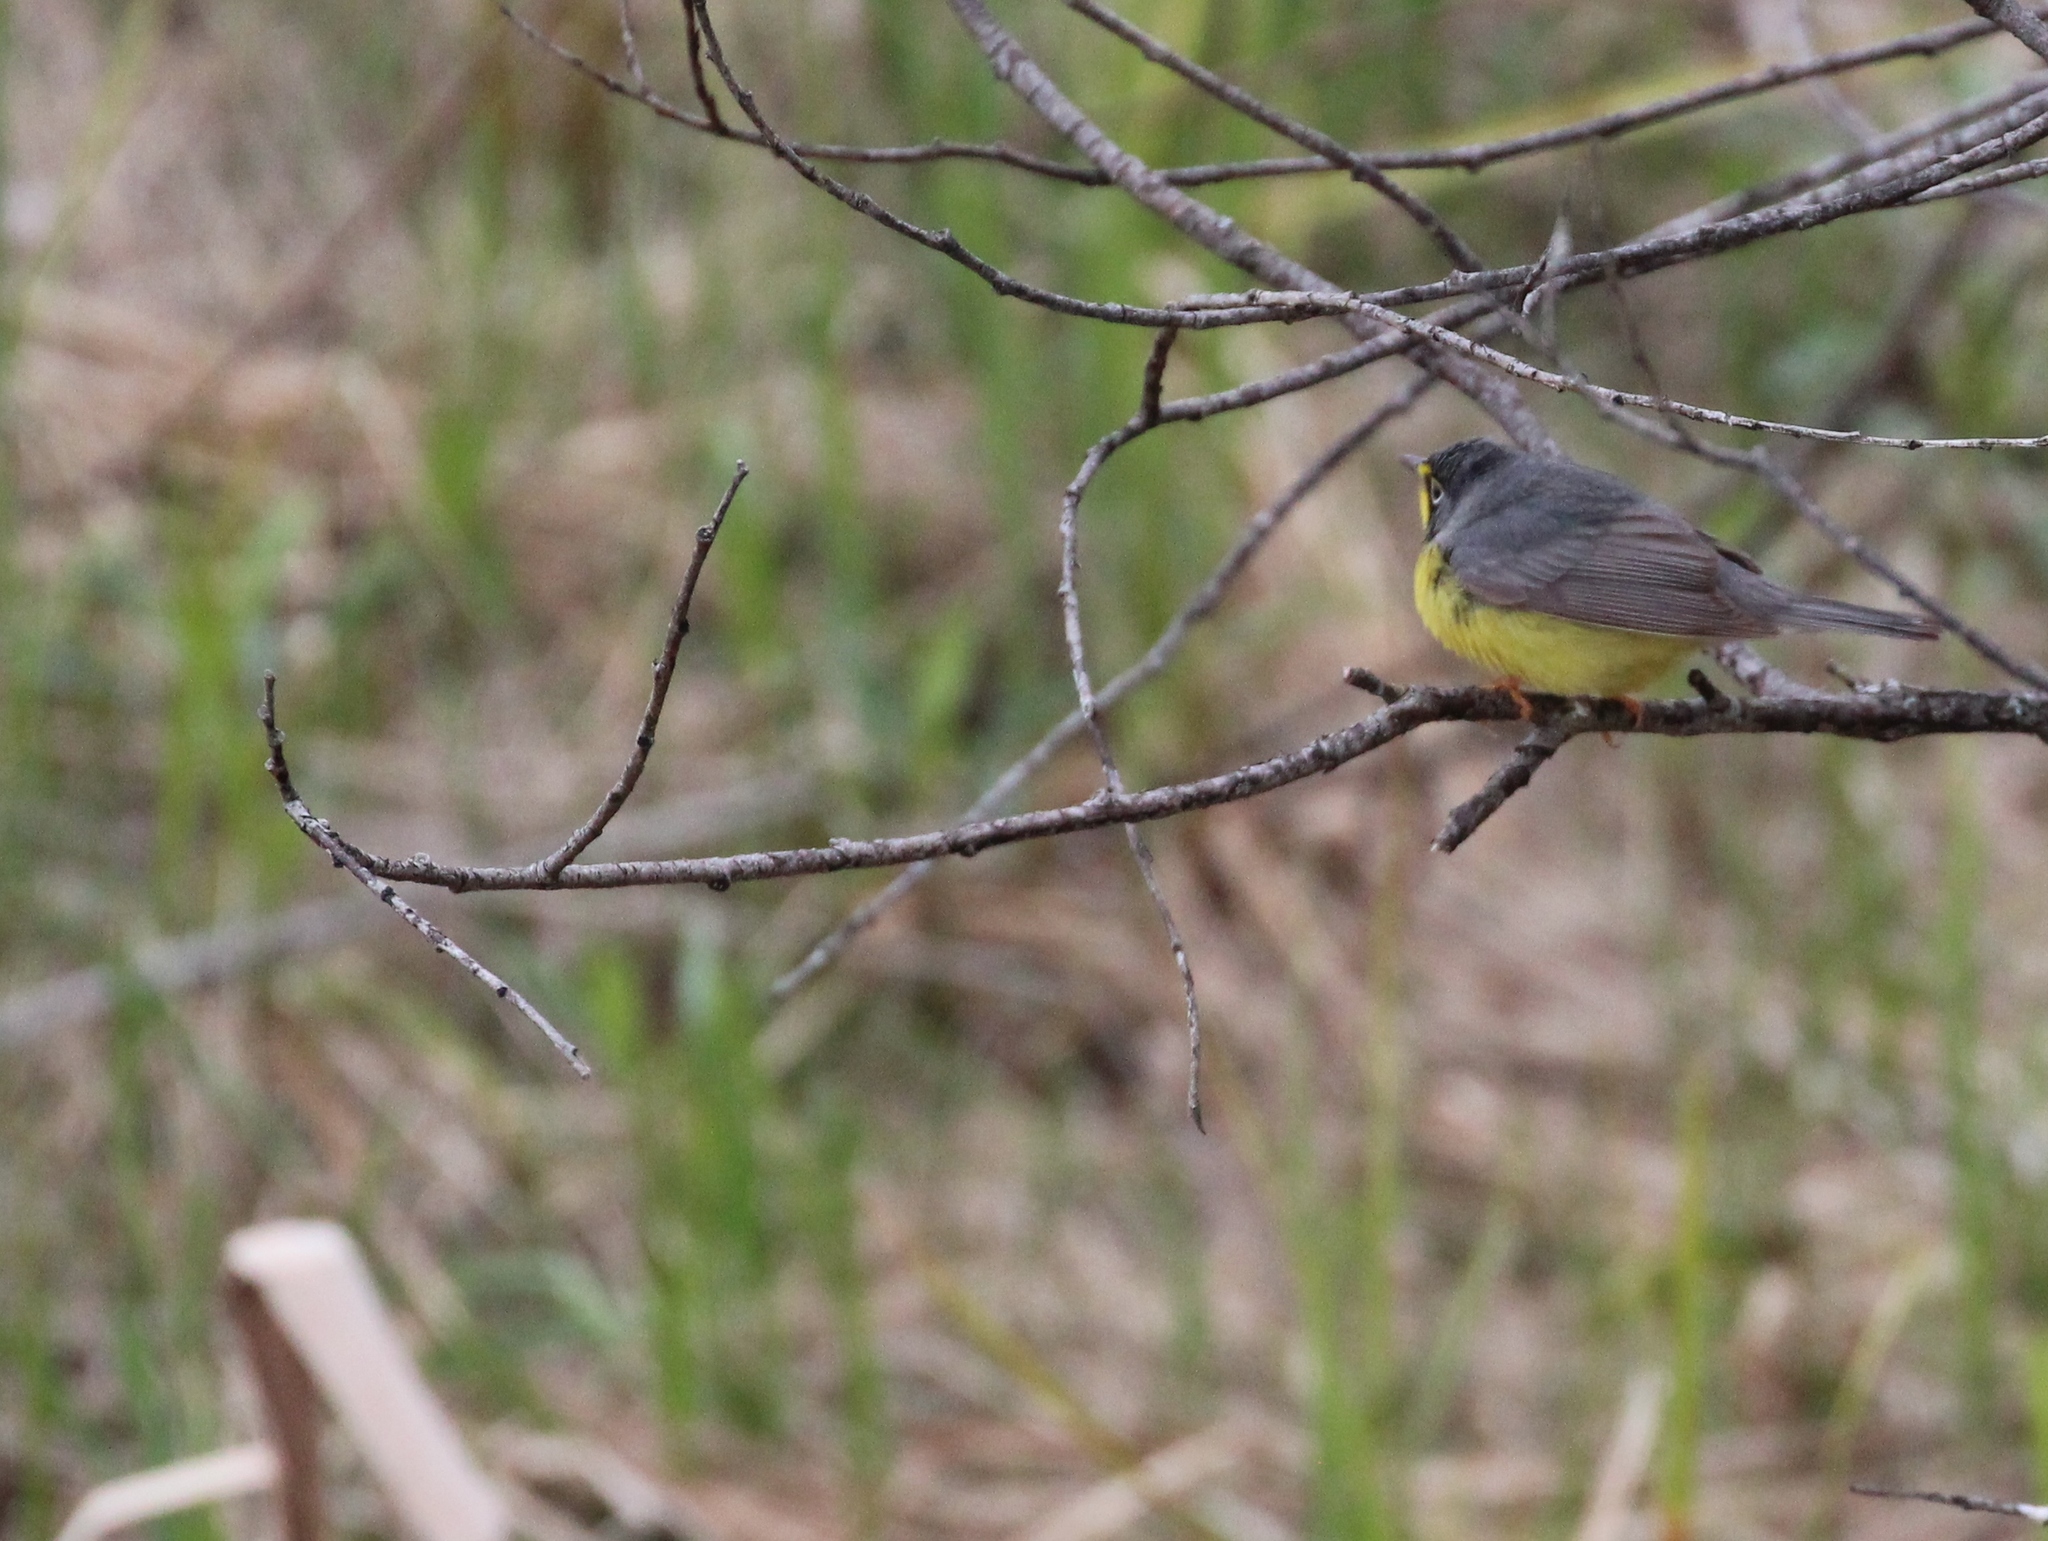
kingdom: Animalia
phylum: Chordata
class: Aves
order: Passeriformes
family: Parulidae
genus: Cardellina
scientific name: Cardellina canadensis
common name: Canada warbler
